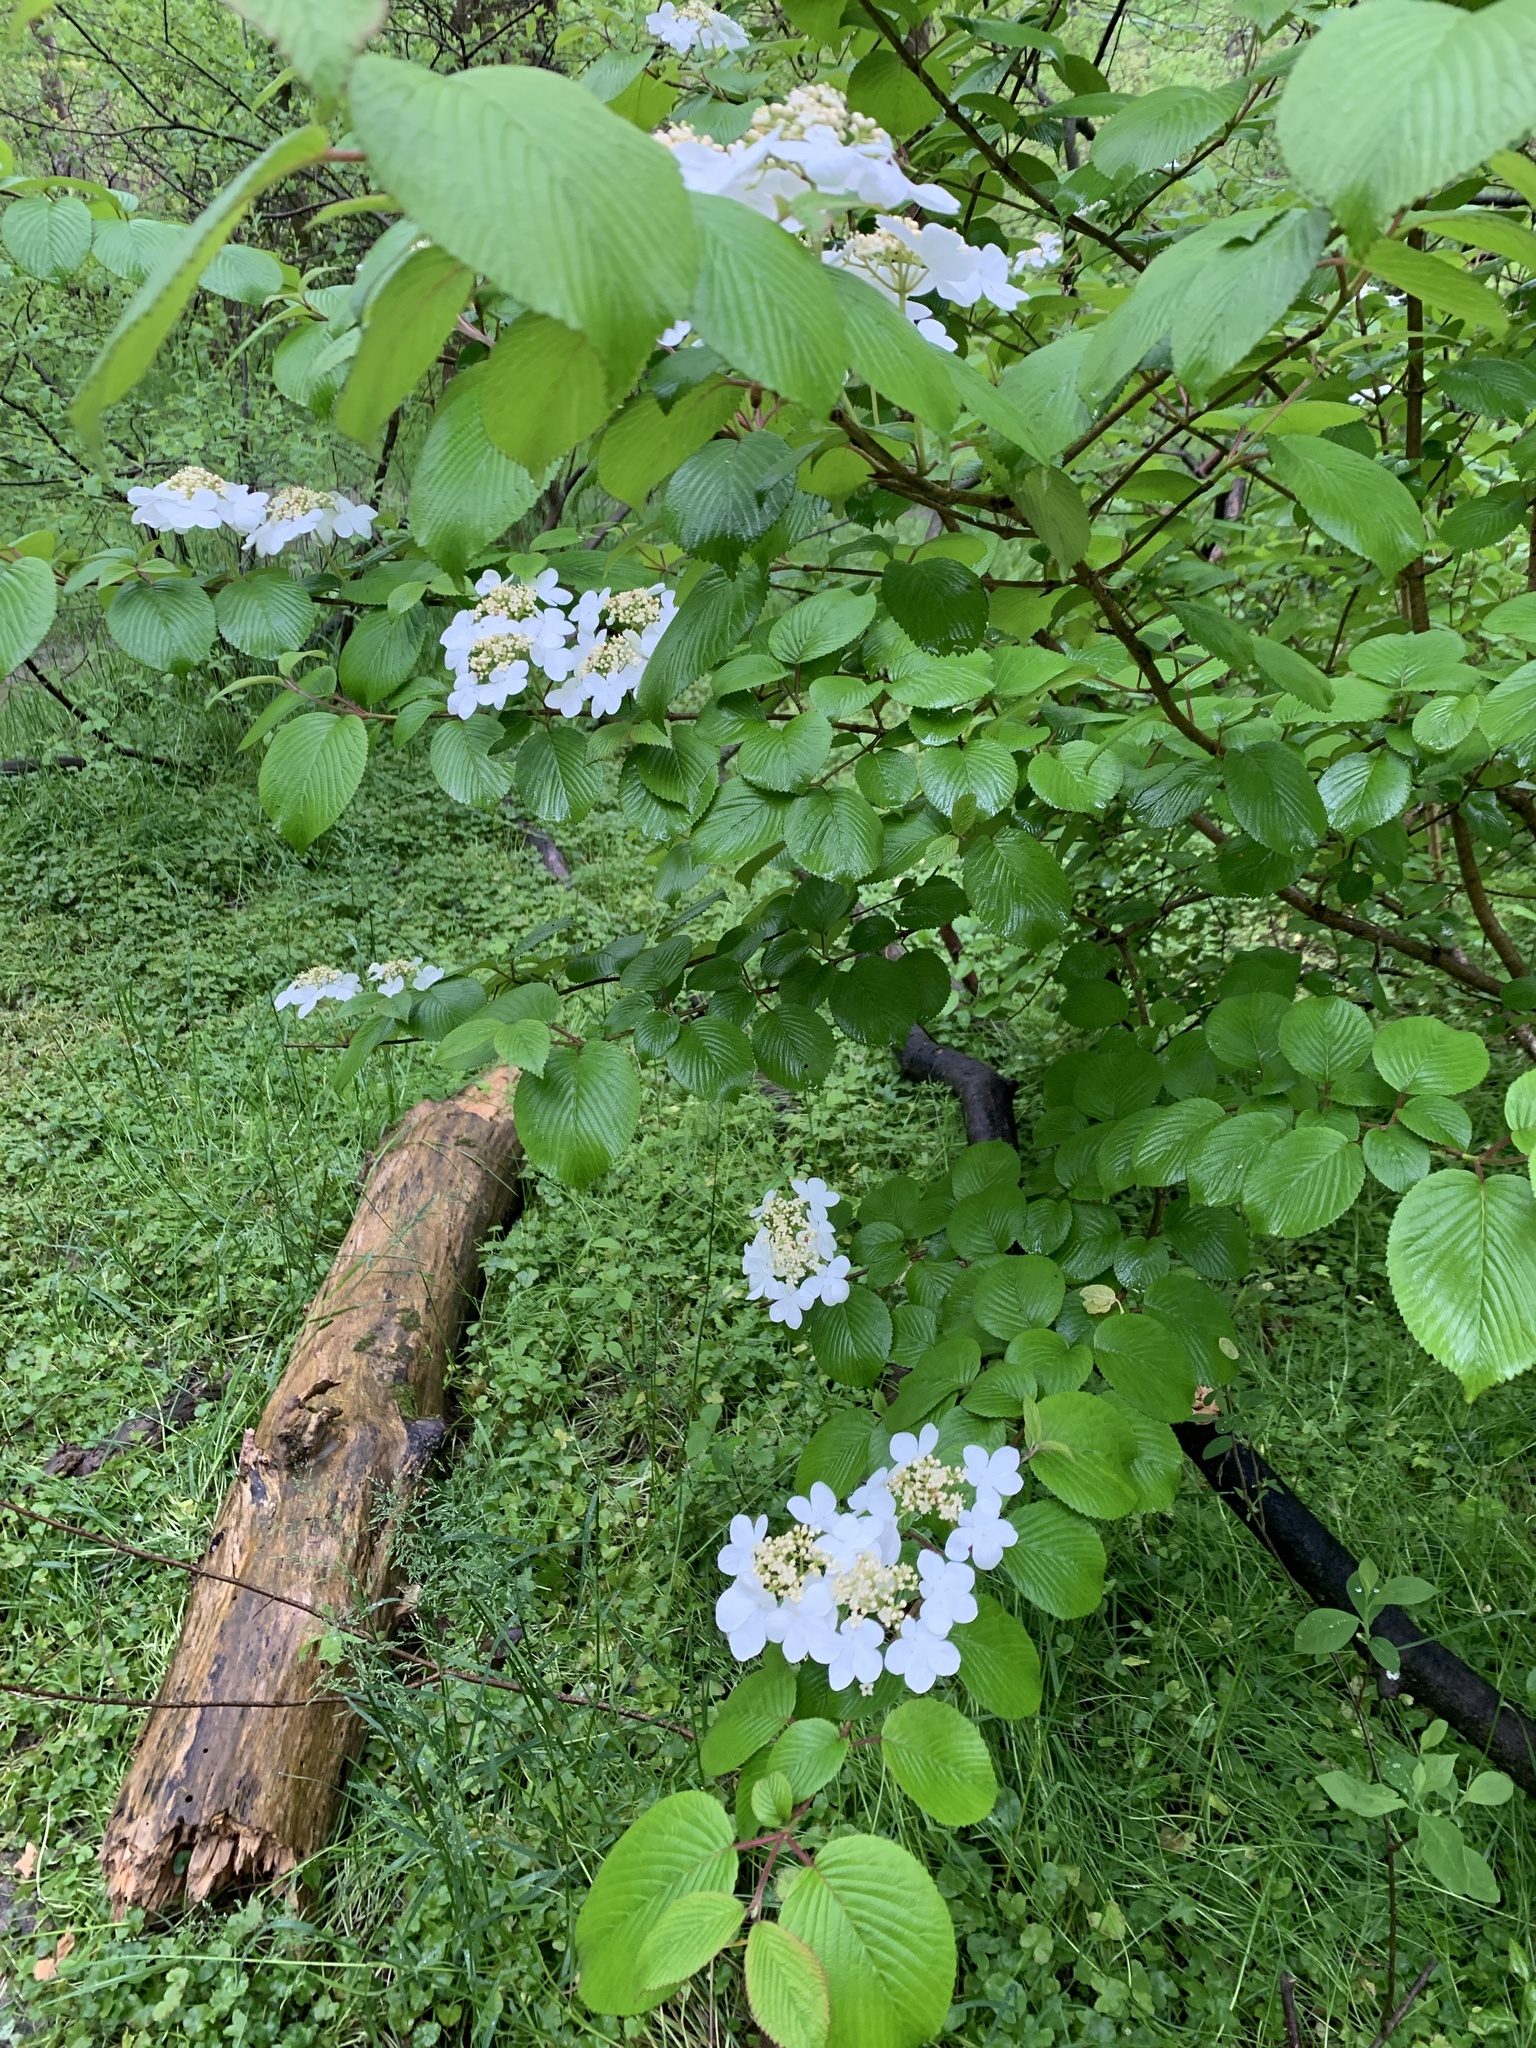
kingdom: Plantae
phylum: Tracheophyta
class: Magnoliopsida
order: Dipsacales
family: Viburnaceae
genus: Viburnum
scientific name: Viburnum plicatum
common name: Japanese snowball
